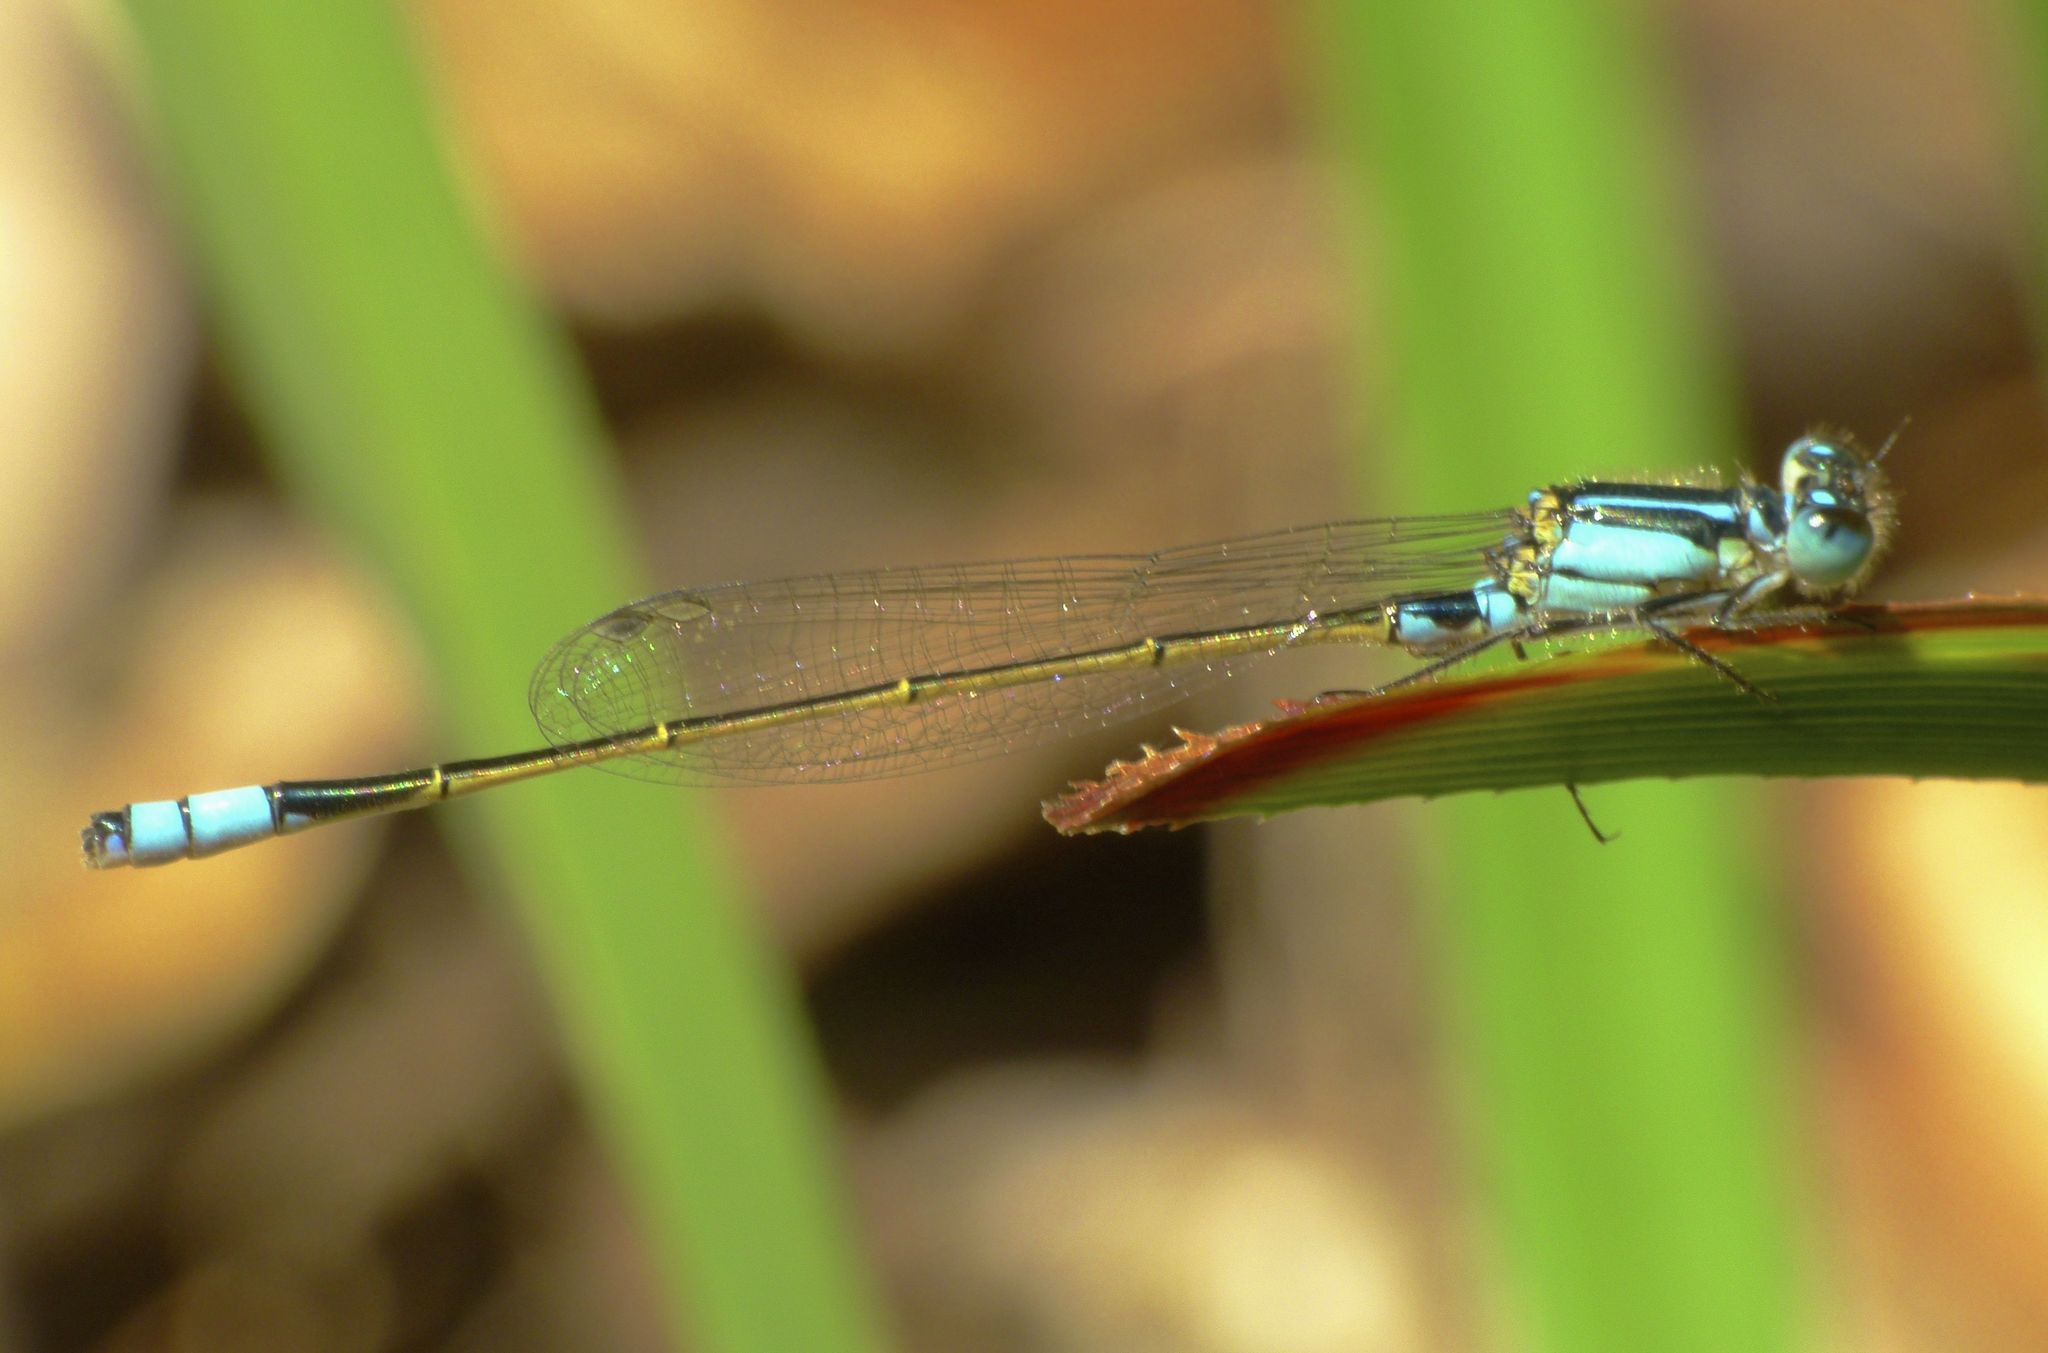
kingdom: Animalia
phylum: Arthropoda
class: Insecta
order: Odonata
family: Coenagrionidae
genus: Ischnura
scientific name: Ischnura heterosticta
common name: Common bluetail
